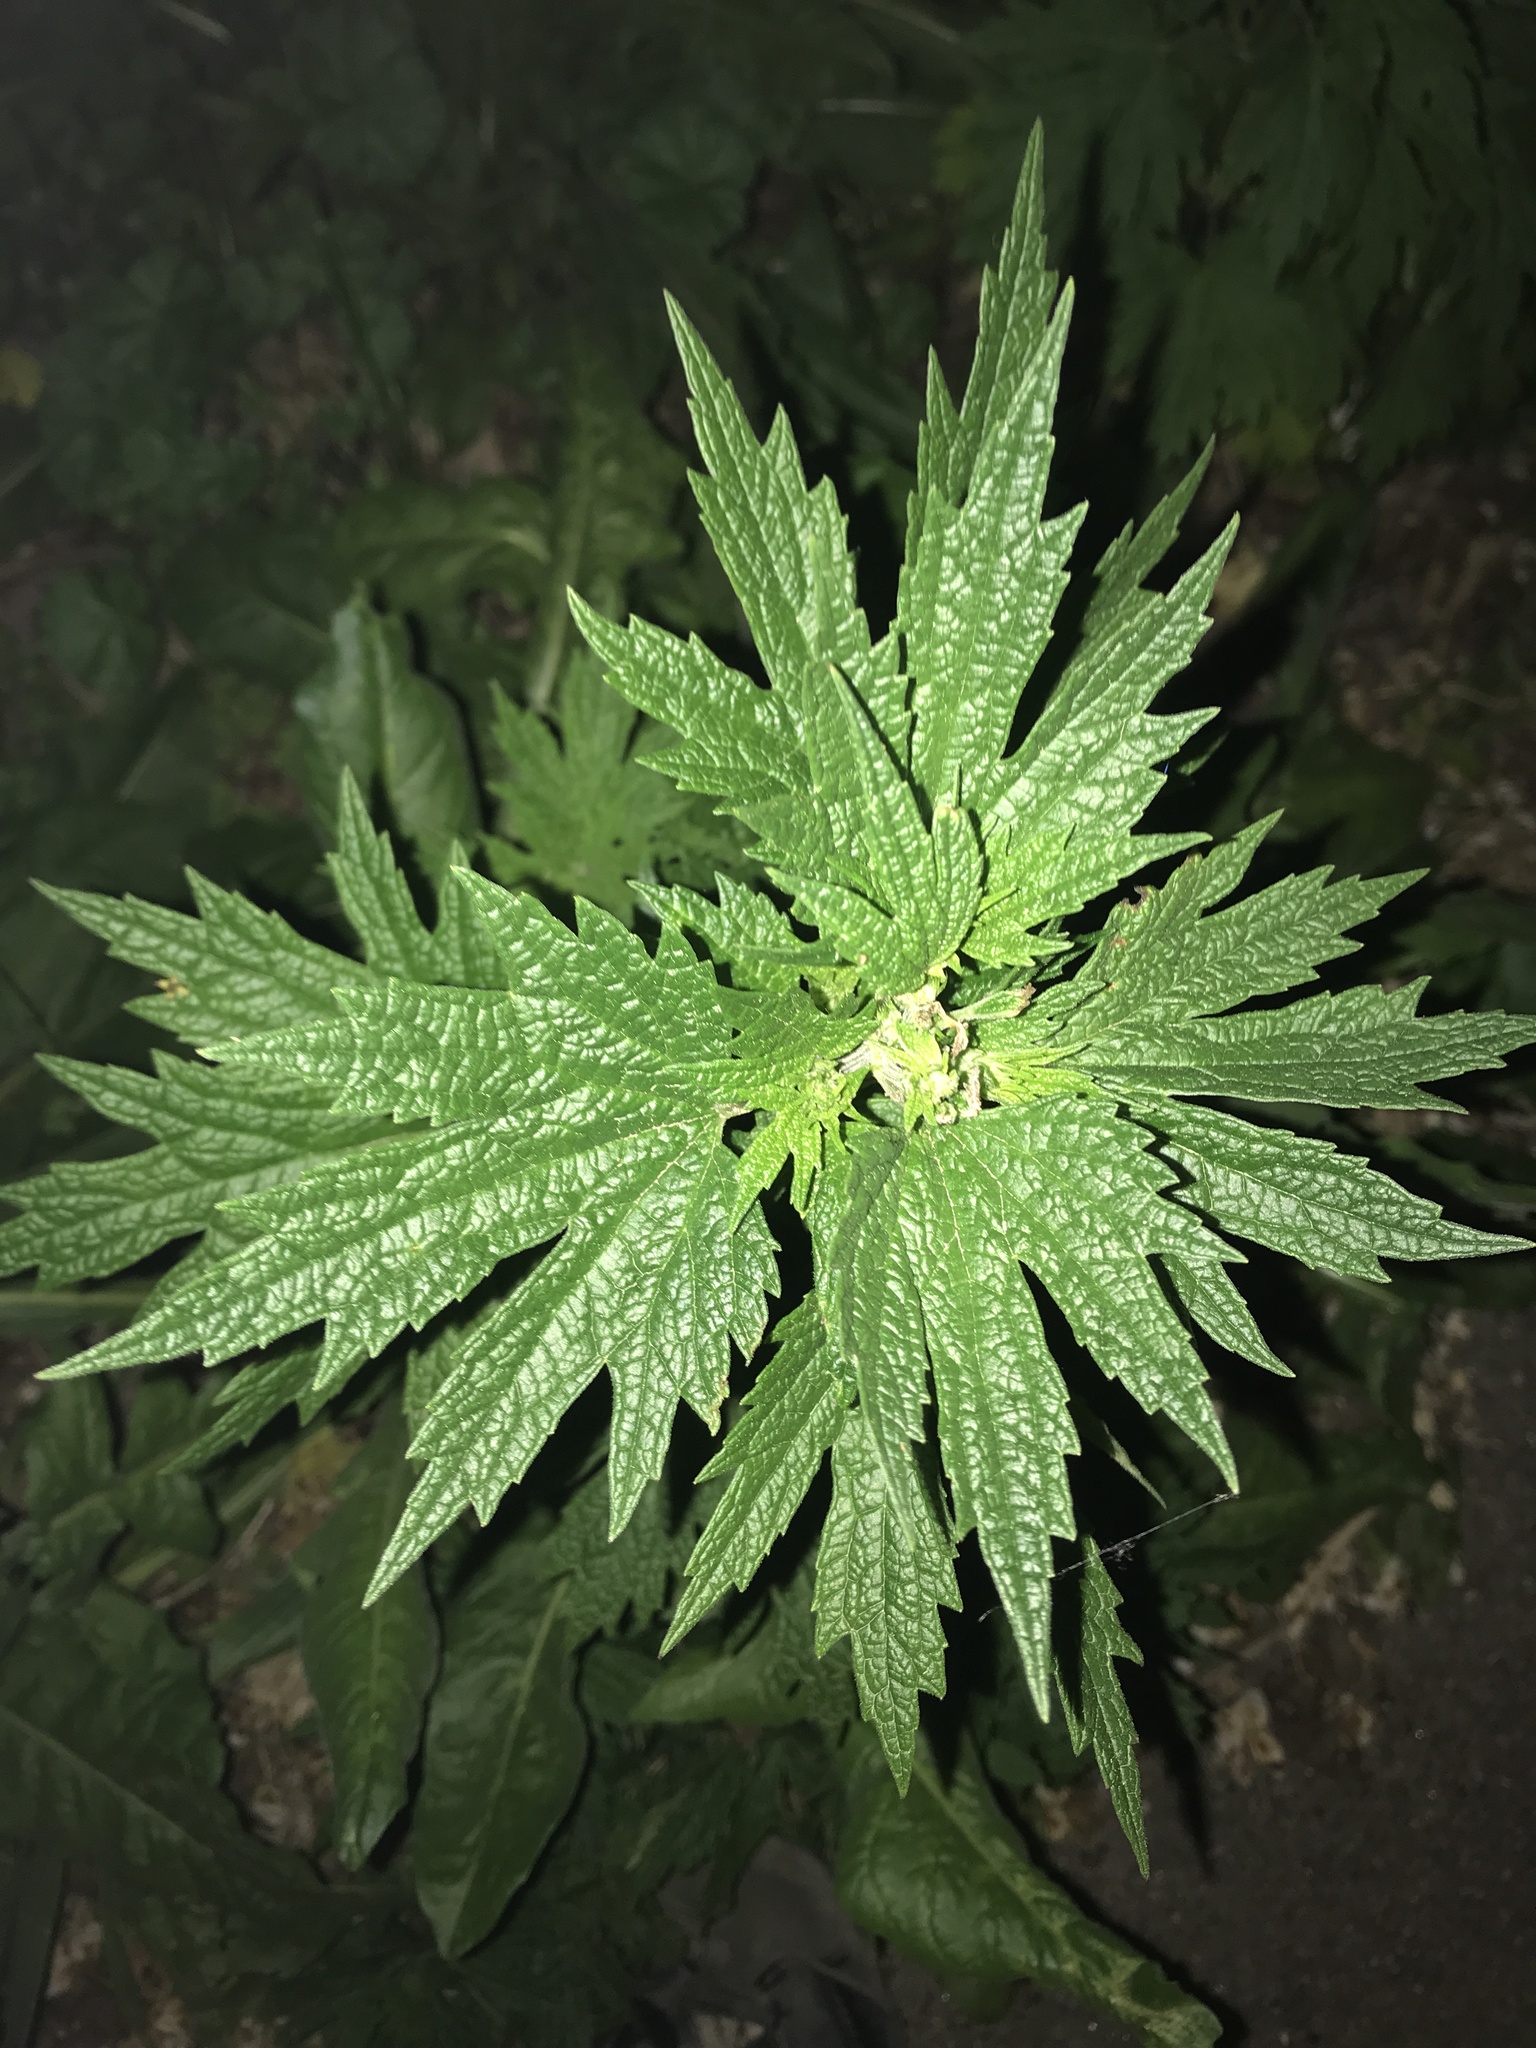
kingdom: Plantae
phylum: Tracheophyta
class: Magnoliopsida
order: Lamiales
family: Lamiaceae
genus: Leonurus
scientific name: Leonurus cardiaca
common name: Motherwort
